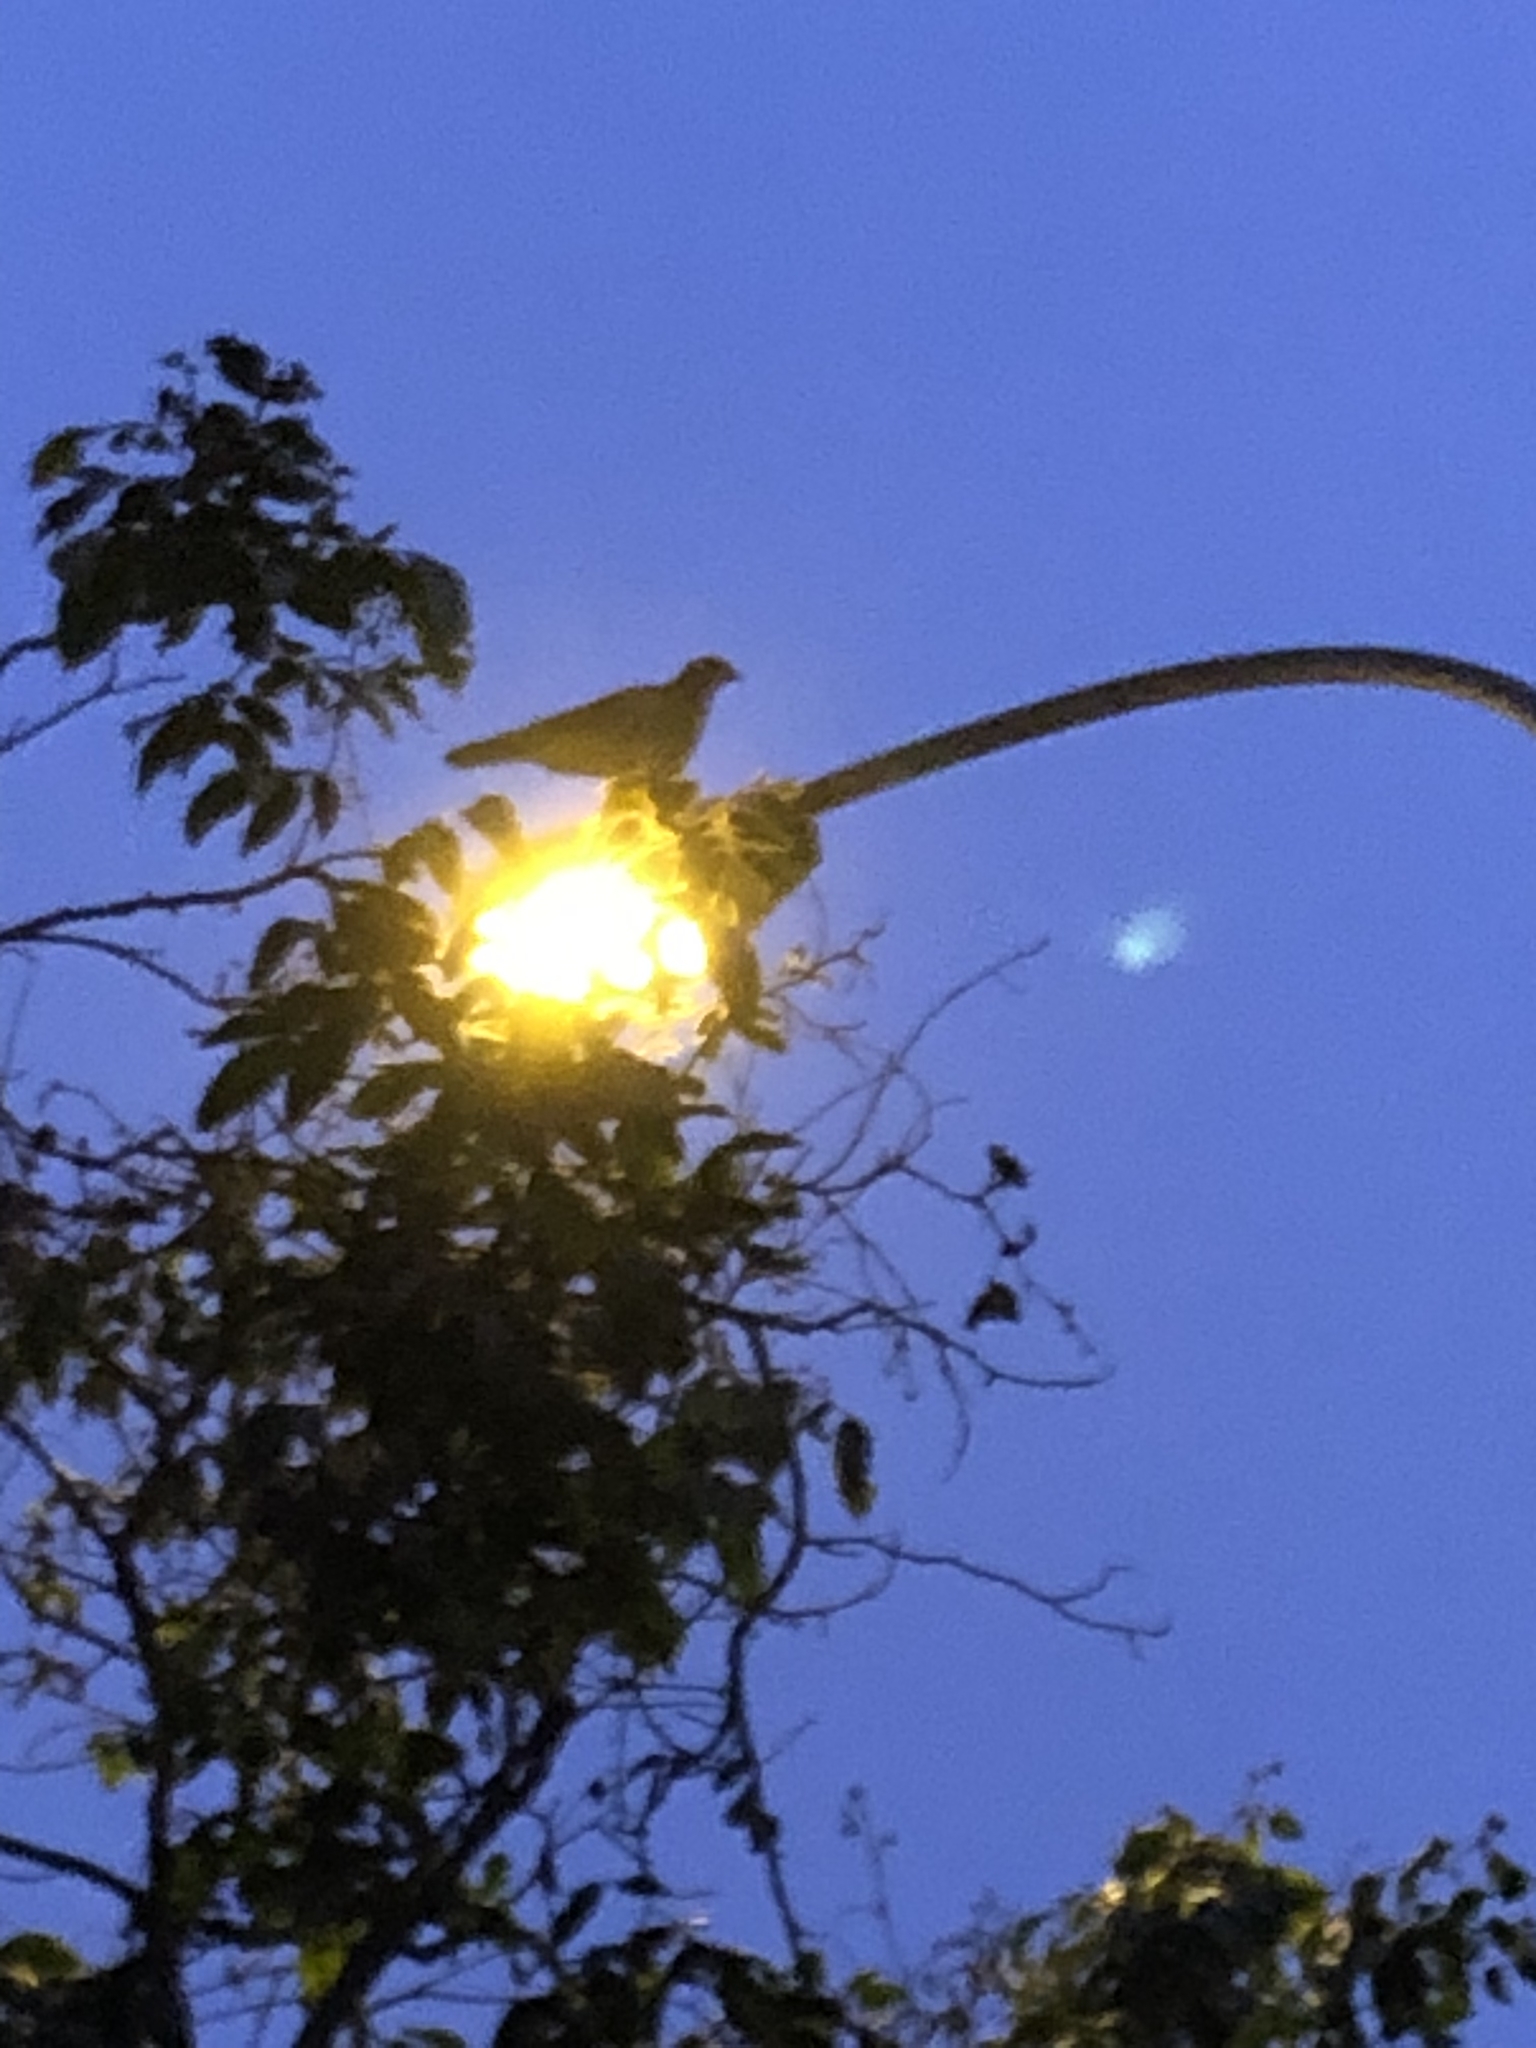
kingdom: Animalia
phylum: Chordata
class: Aves
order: Accipitriformes
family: Accipitridae
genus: Parabuteo
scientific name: Parabuteo unicinctus
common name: Harris's hawk
